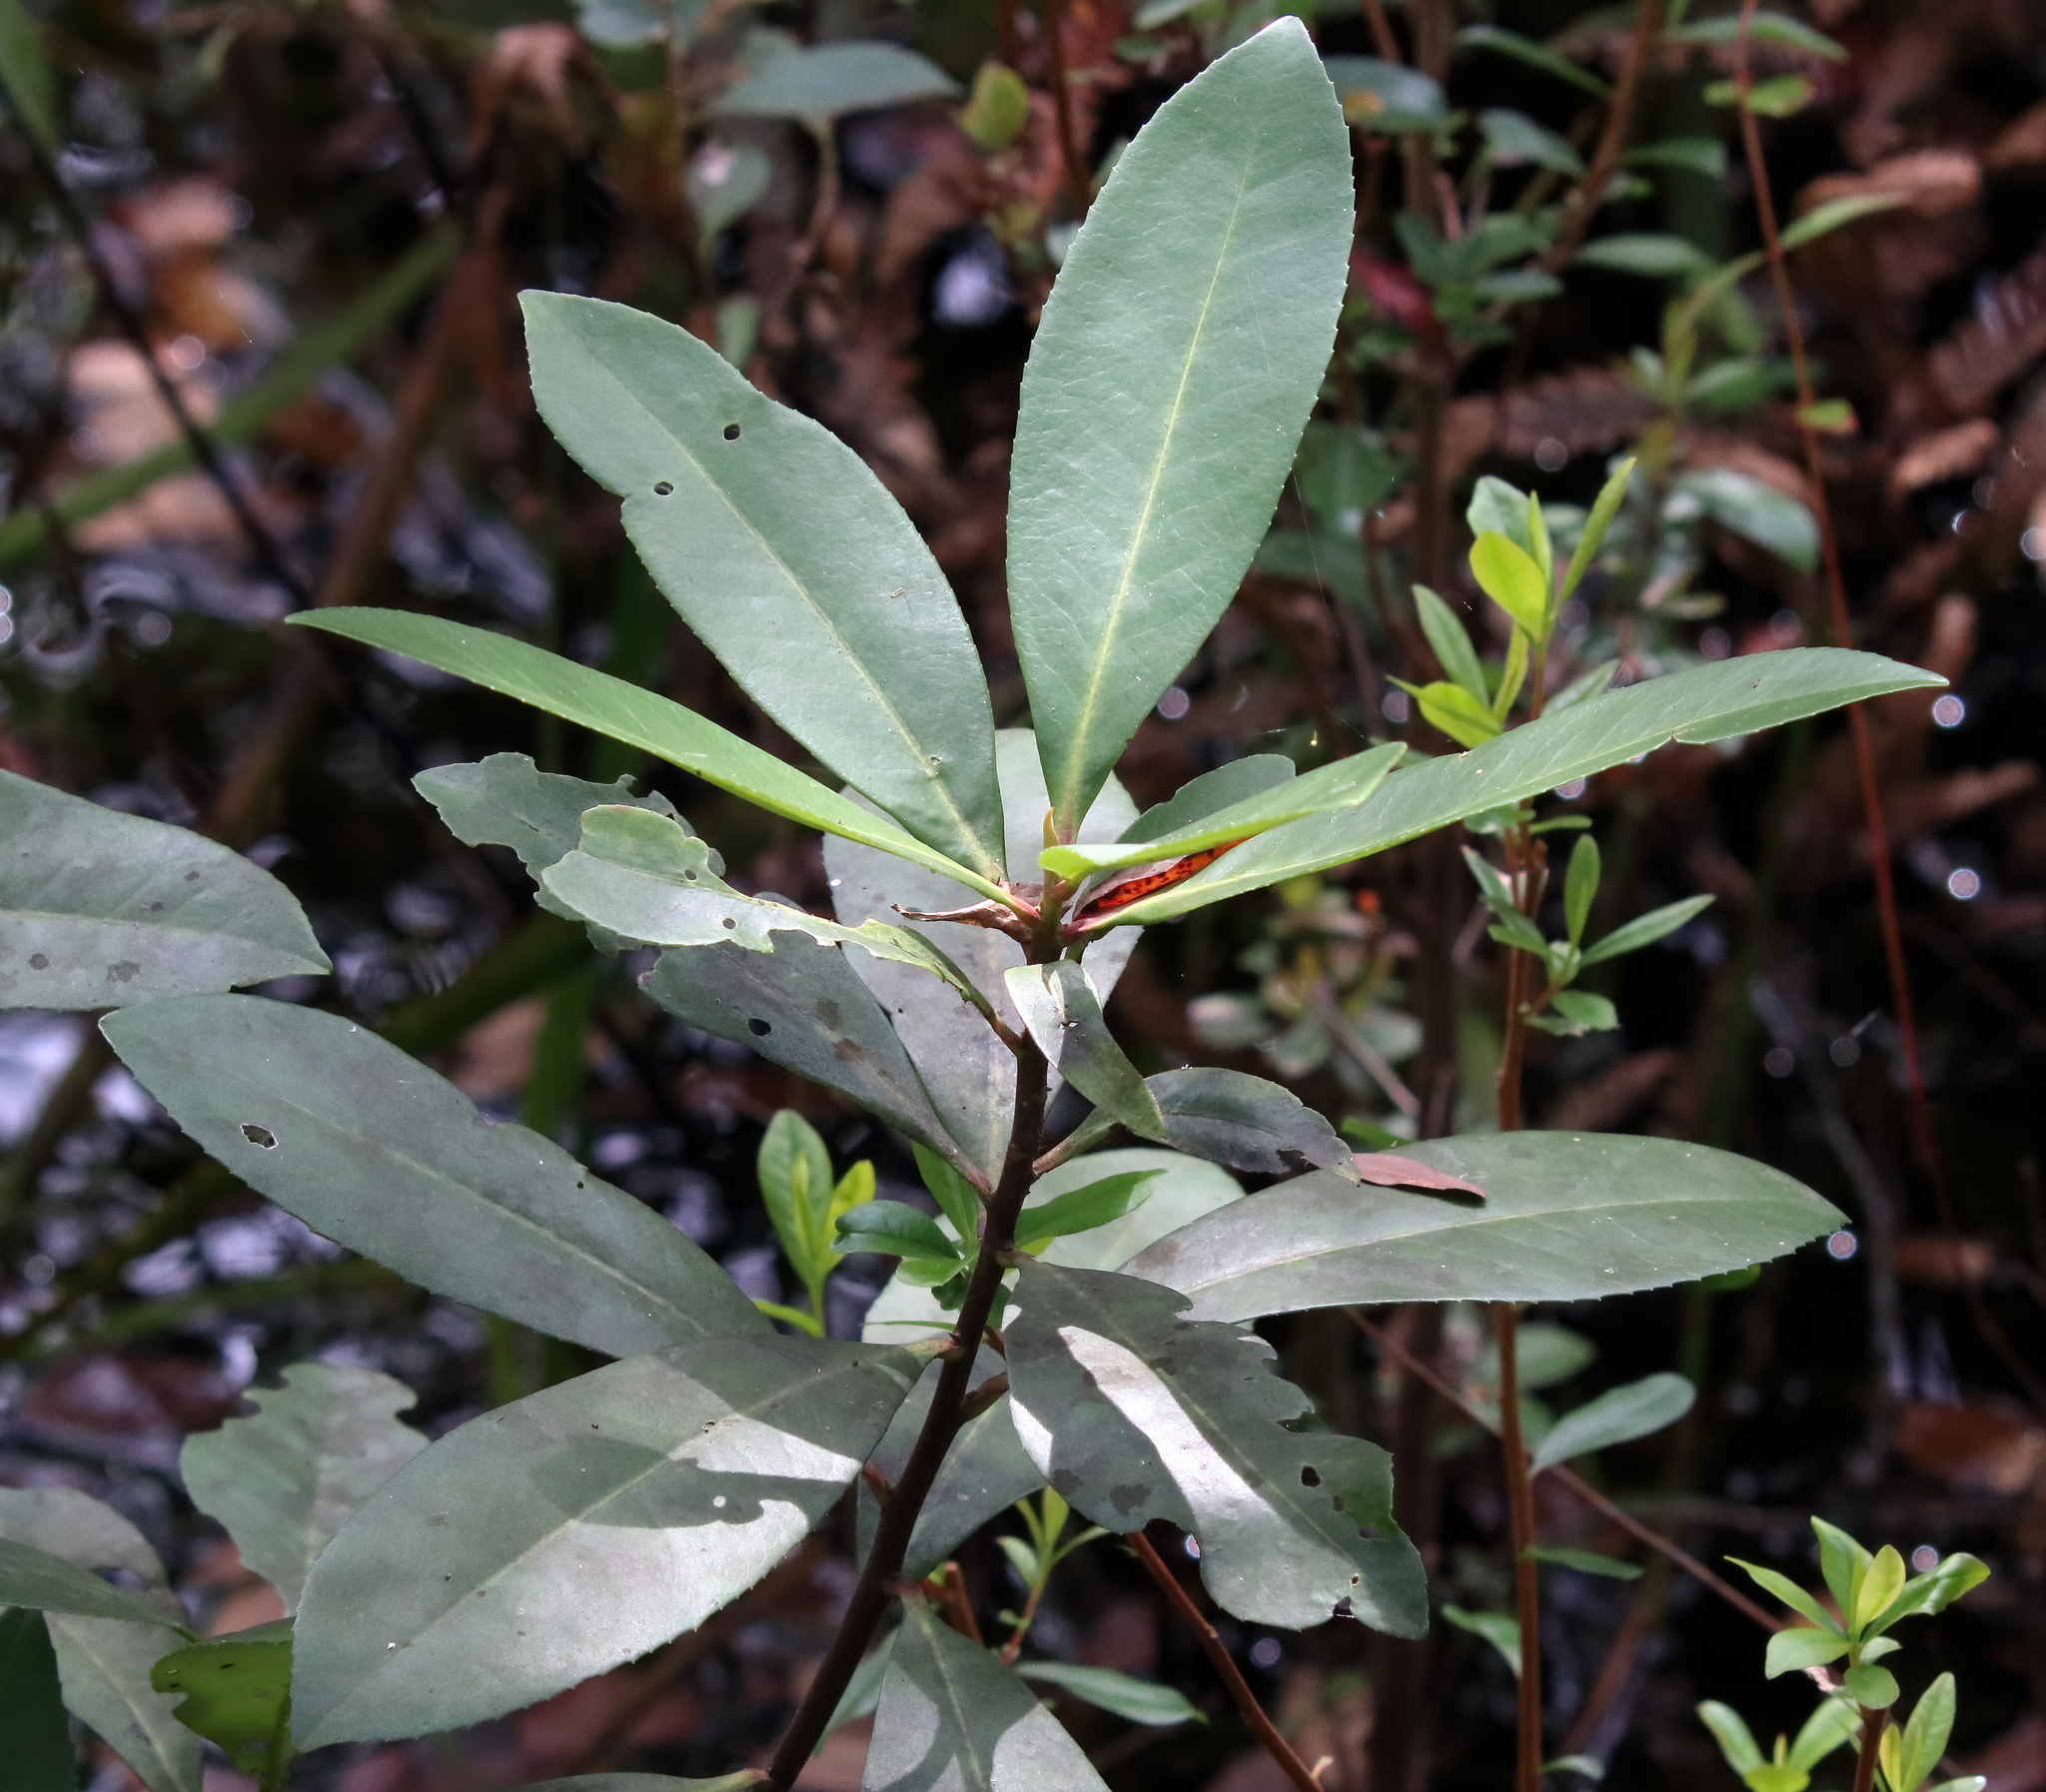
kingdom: Plantae
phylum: Tracheophyta
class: Magnoliopsida
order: Ericales
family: Theaceae
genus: Gordonia
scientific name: Gordonia lasianthus
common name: Loblolly bay
